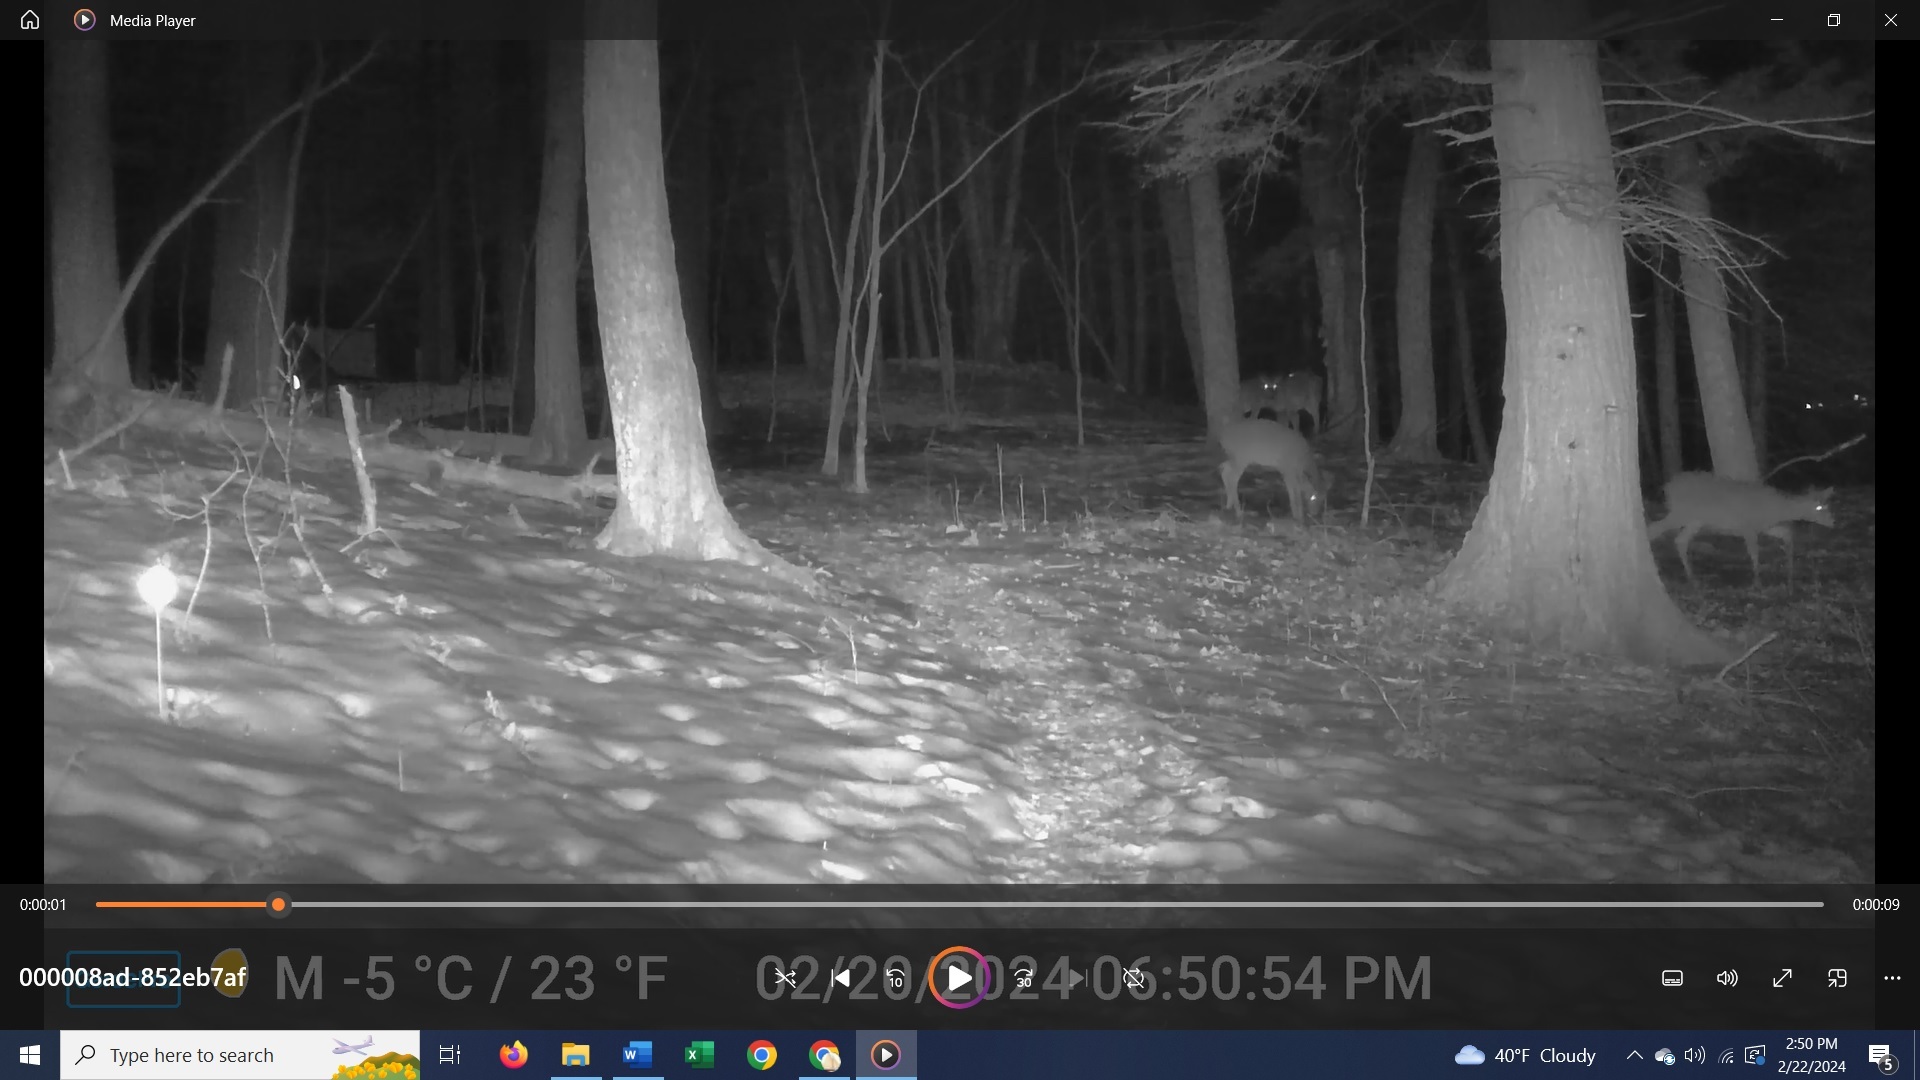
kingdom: Animalia
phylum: Chordata
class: Mammalia
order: Artiodactyla
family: Cervidae
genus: Odocoileus
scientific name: Odocoileus virginianus
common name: White-tailed deer
